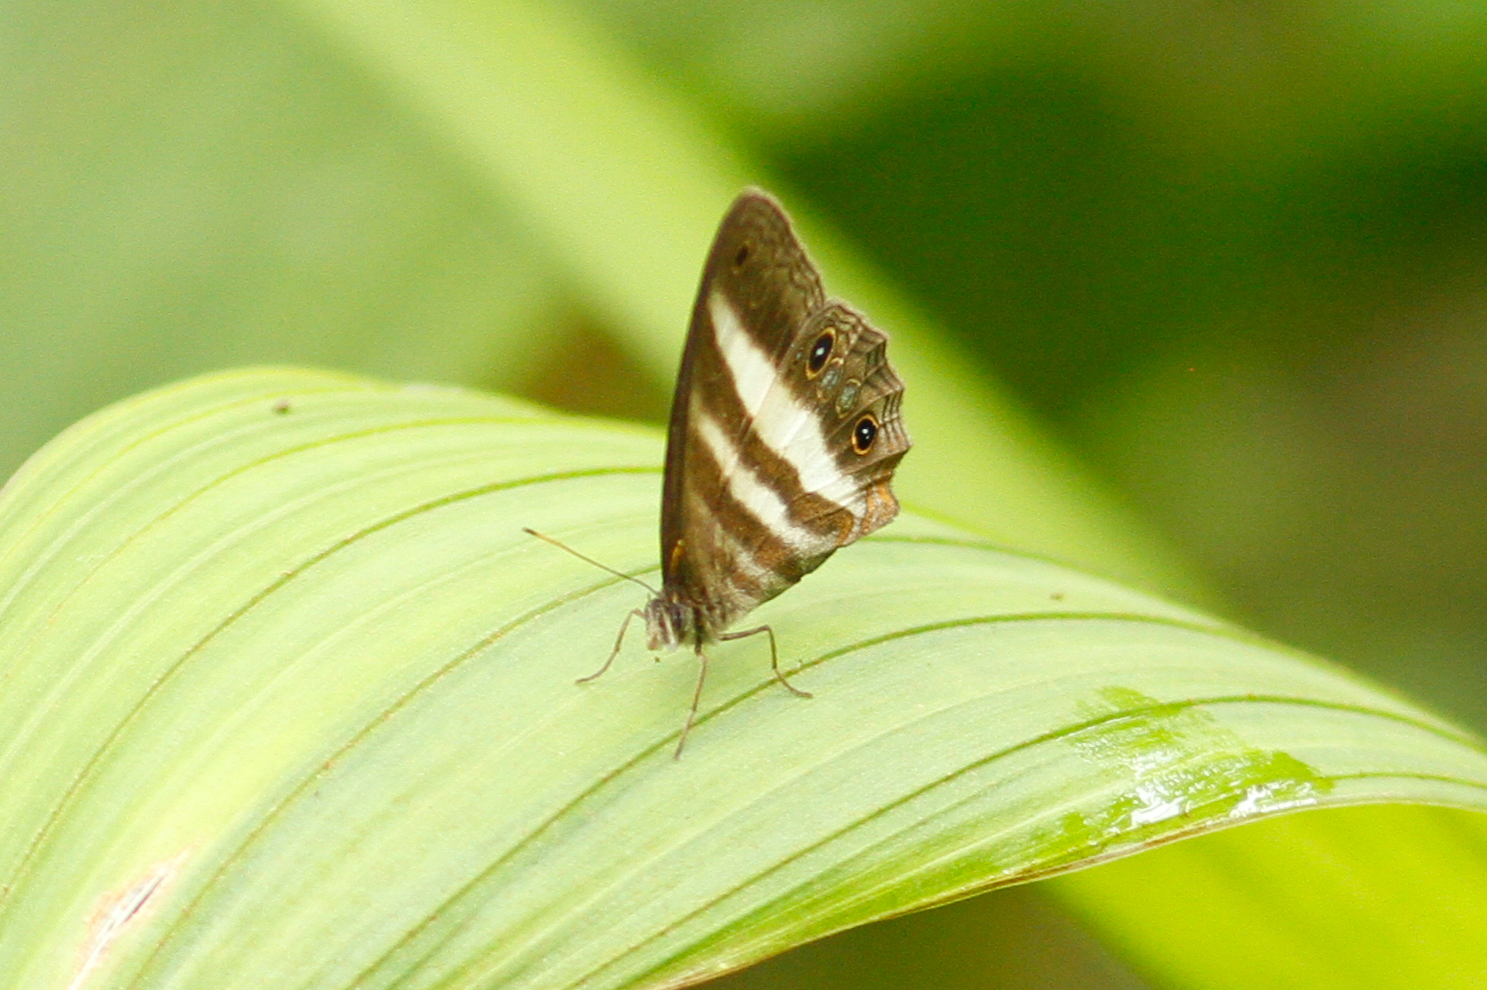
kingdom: Animalia
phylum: Arthropoda
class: Insecta
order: Lepidoptera
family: Nymphalidae
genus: Pareuptychia
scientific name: Pareuptychia hesione
